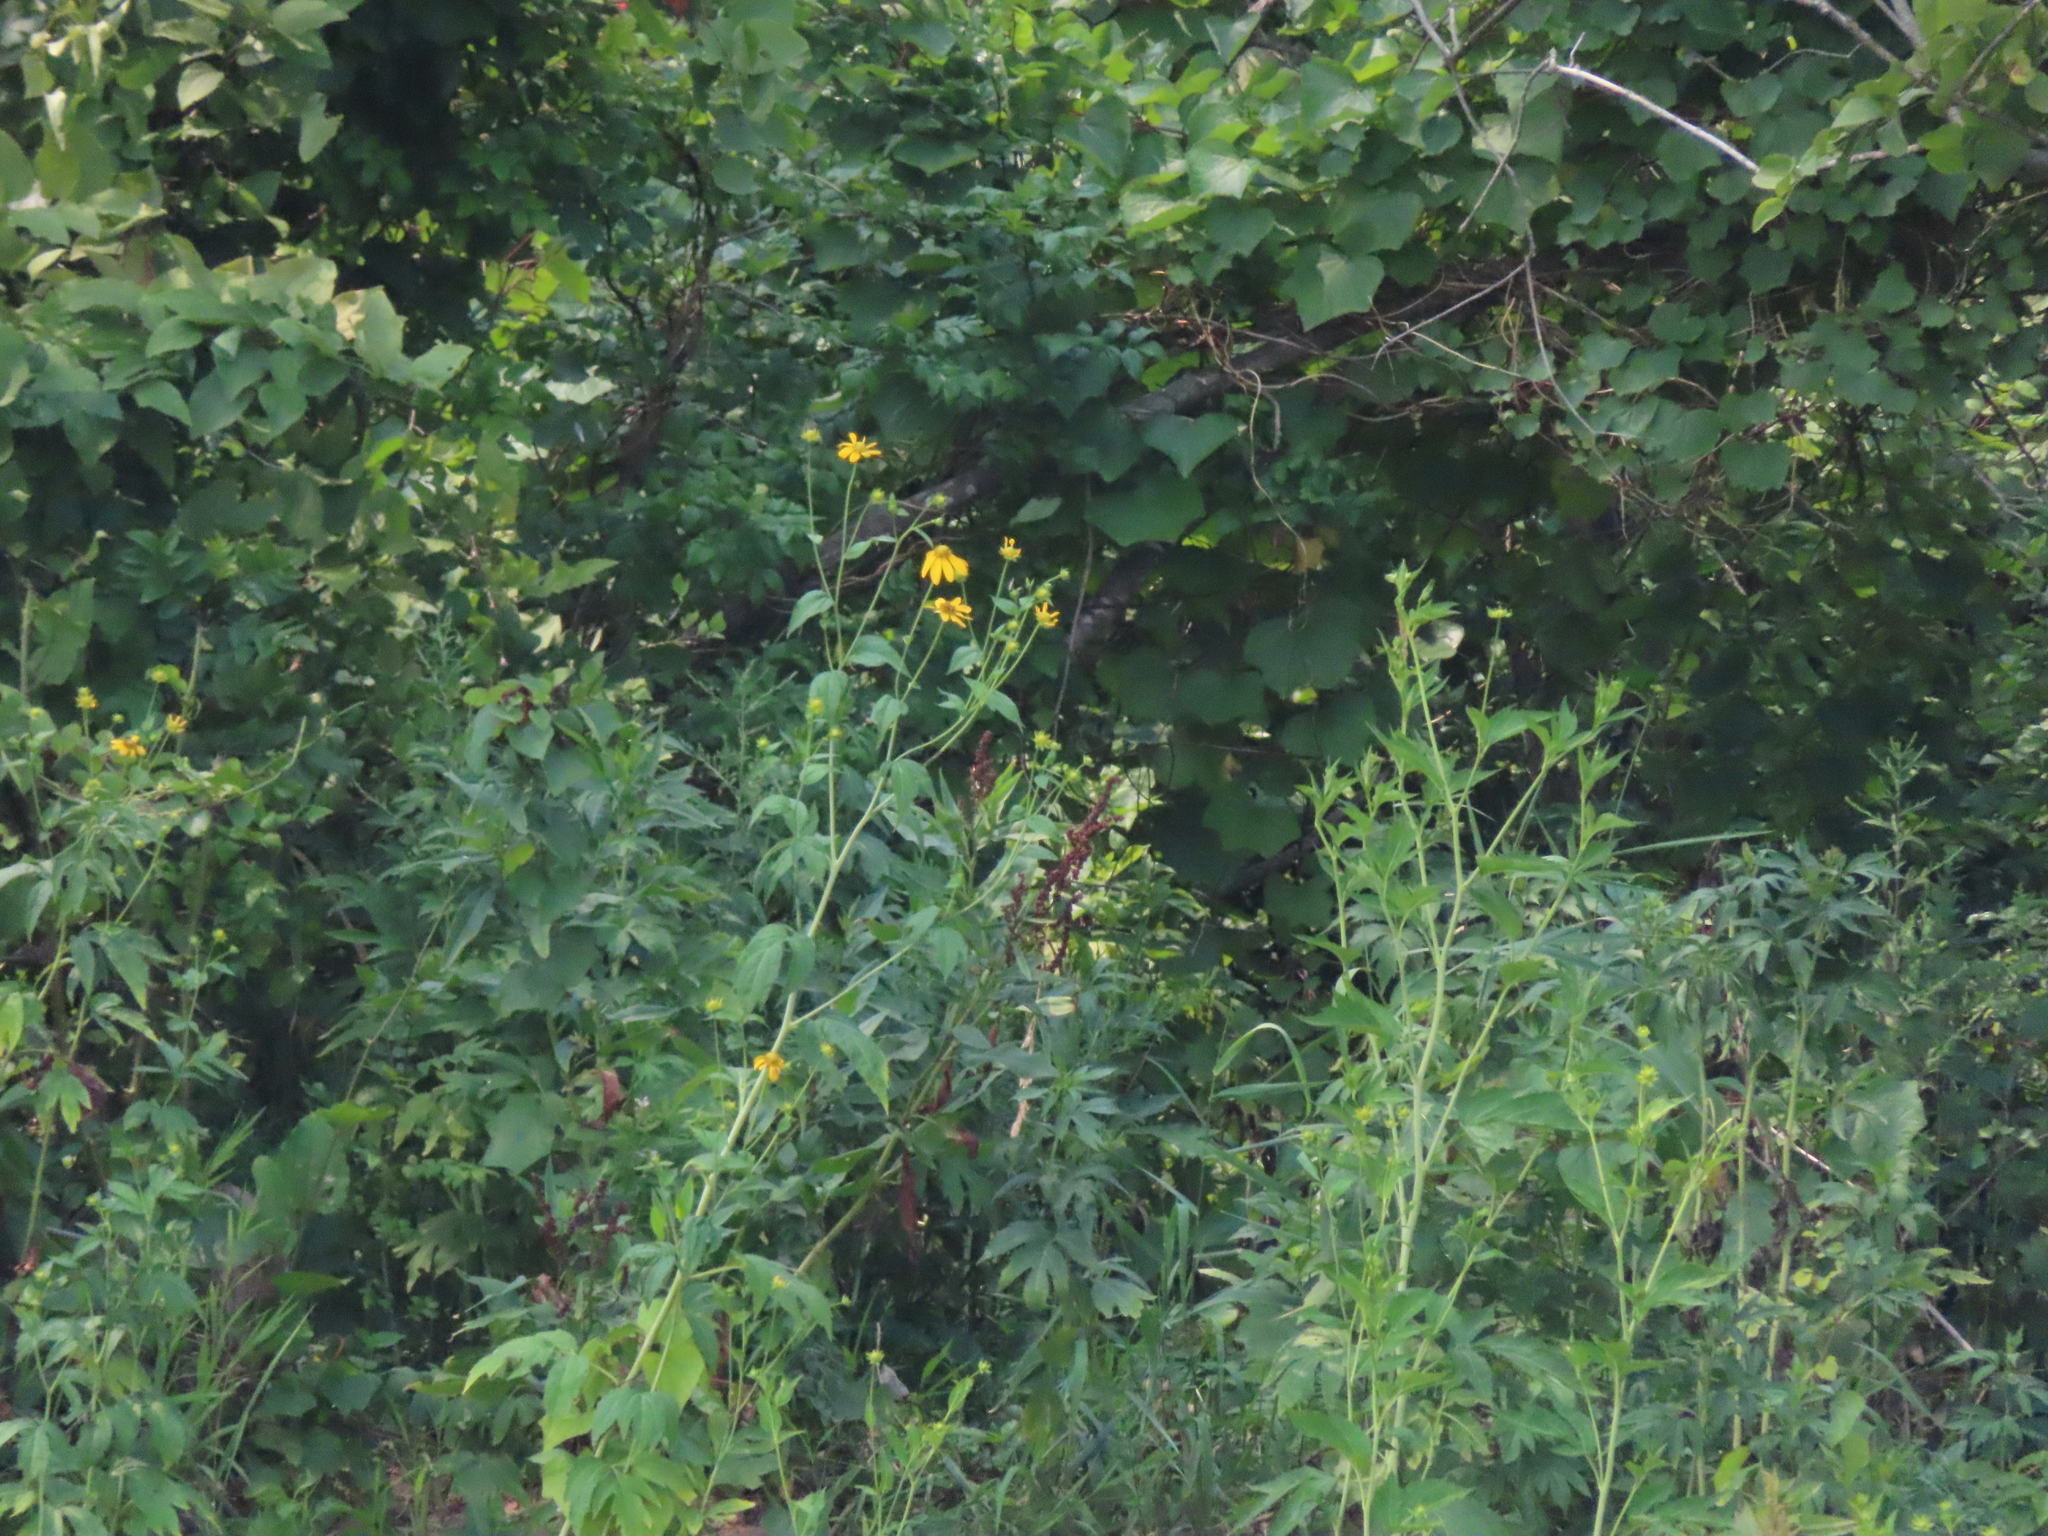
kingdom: Plantae
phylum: Tracheophyta
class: Magnoliopsida
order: Asterales
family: Asteraceae
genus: Rudbeckia
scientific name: Rudbeckia laciniata
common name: Coneflower
